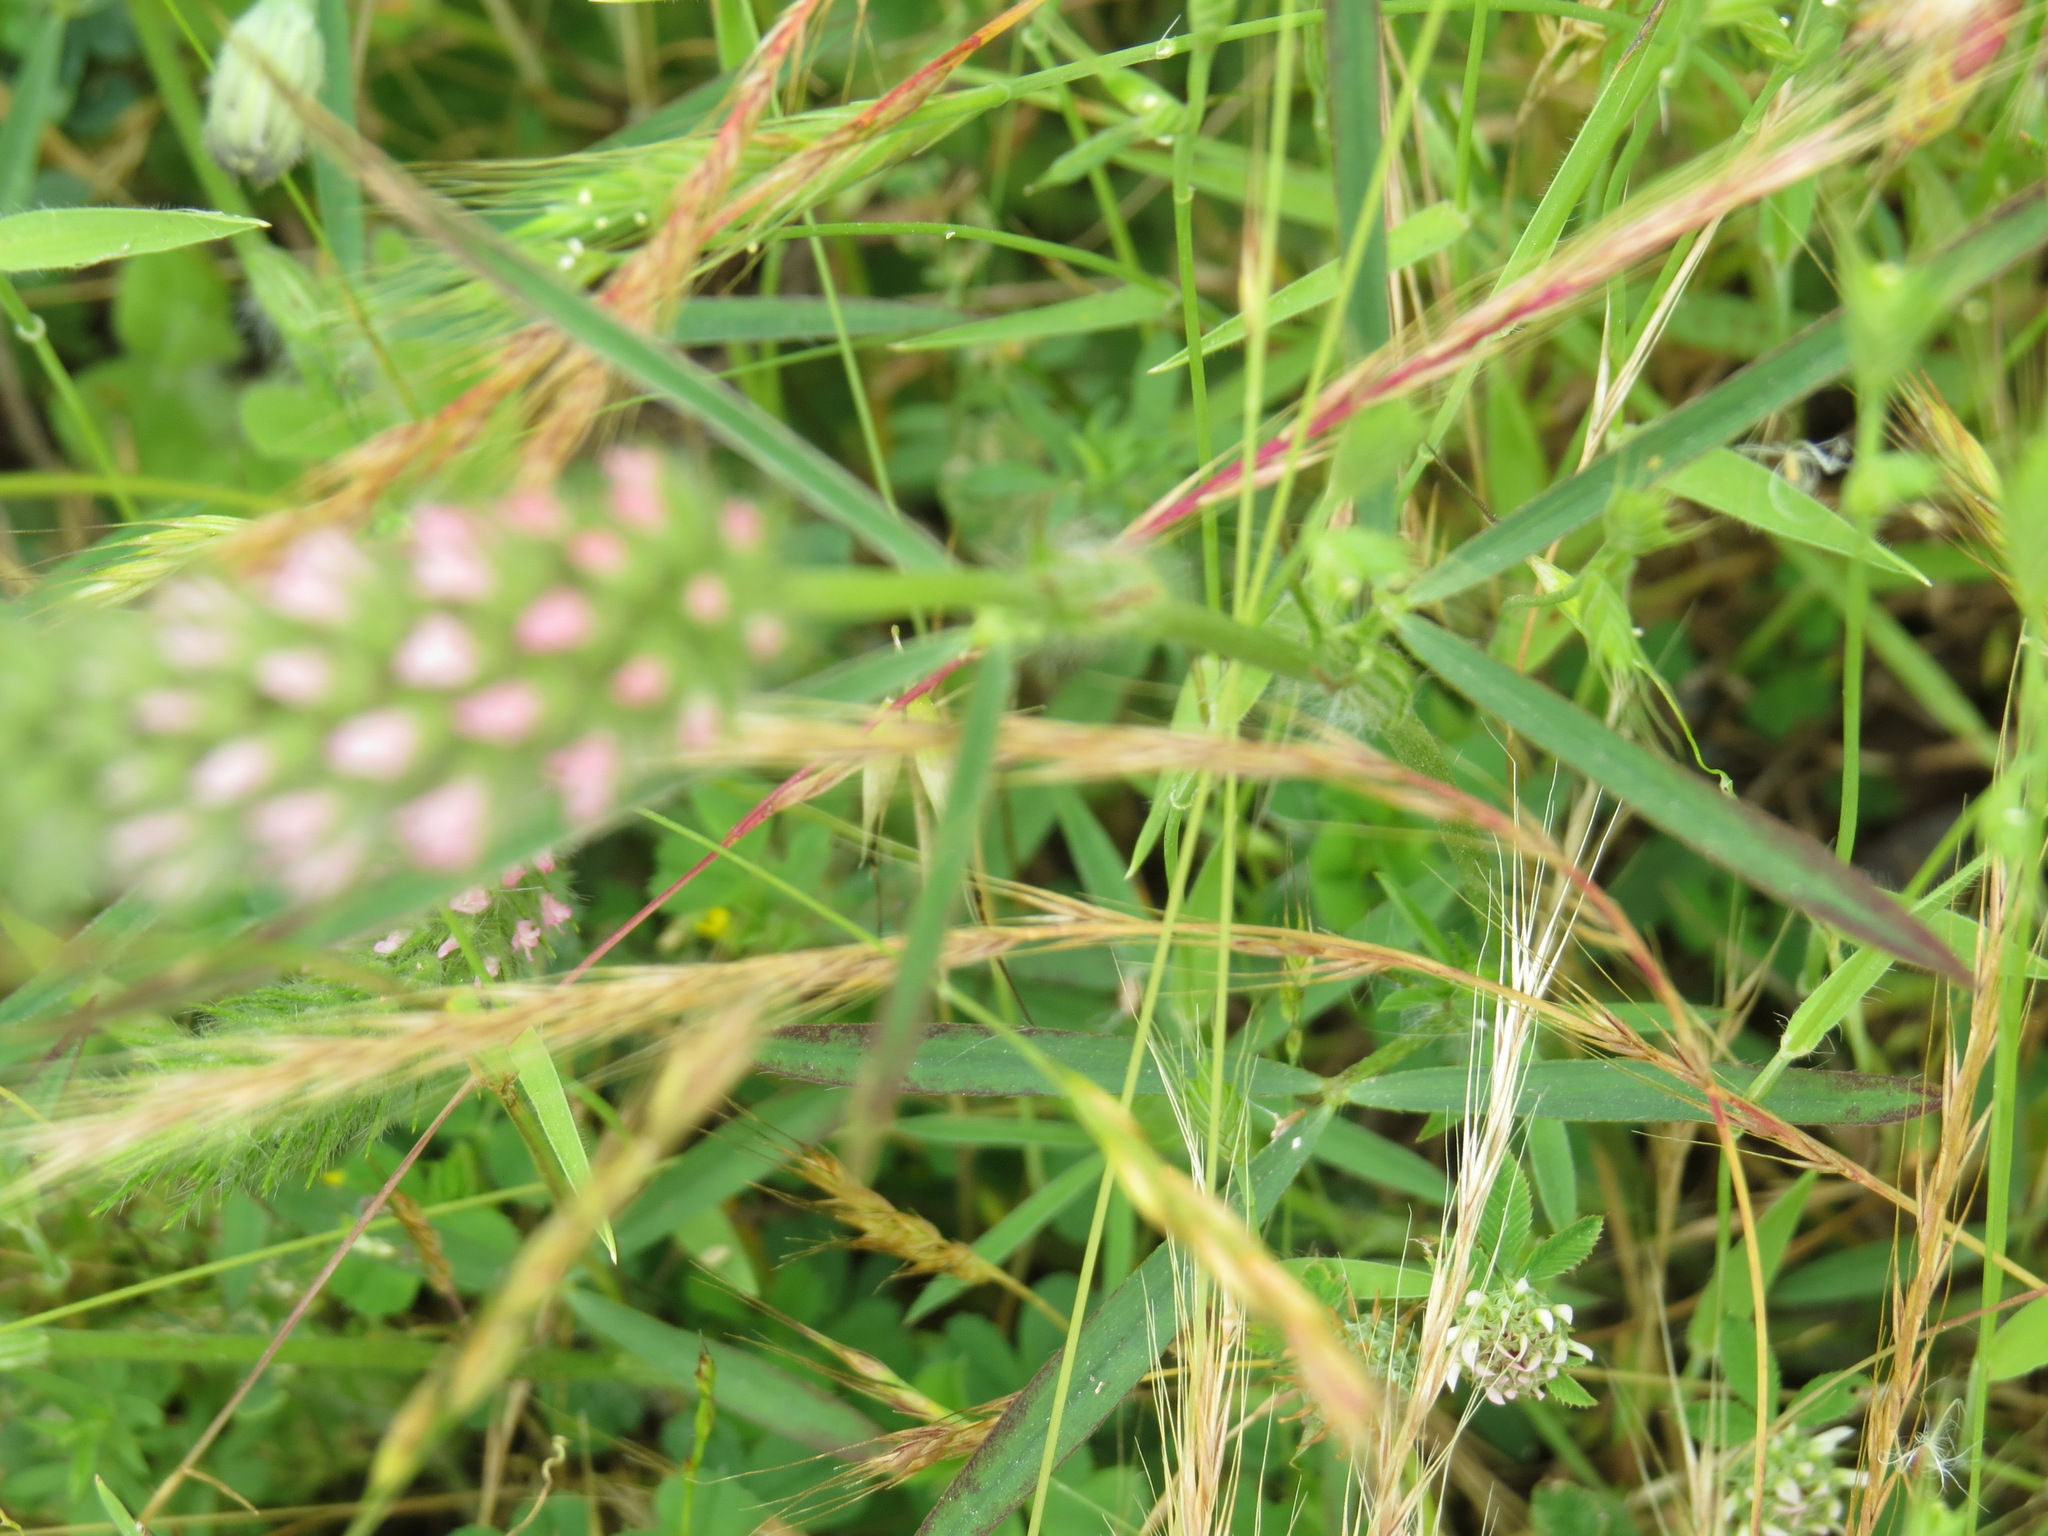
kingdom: Plantae
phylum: Tracheophyta
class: Magnoliopsida
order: Fabales
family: Fabaceae
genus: Trifolium
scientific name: Trifolium angustifolium
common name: Narrow clover
